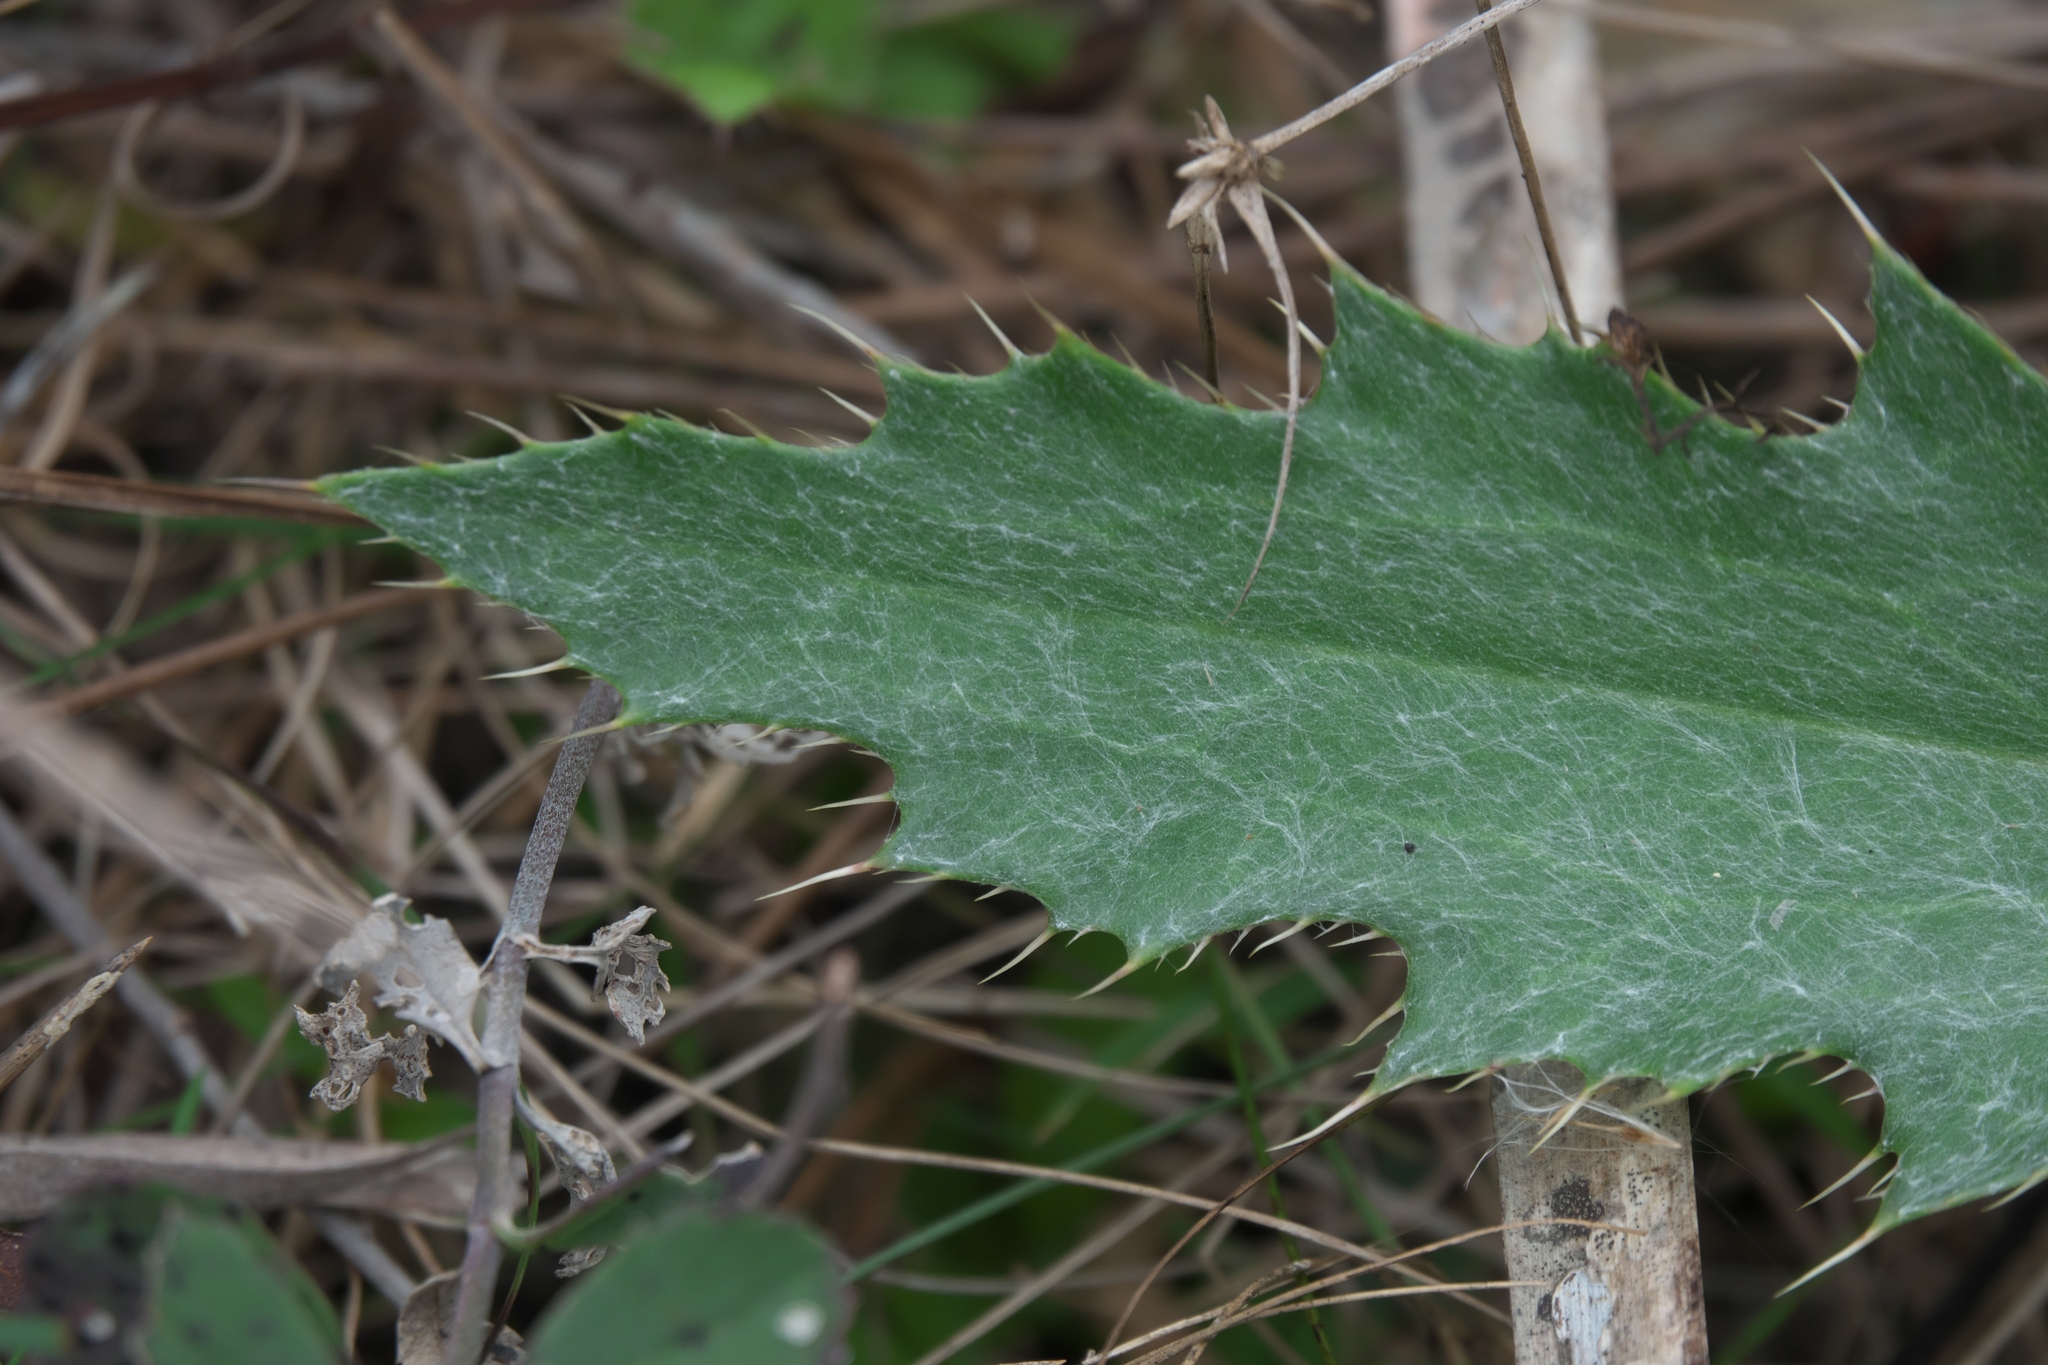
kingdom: Plantae
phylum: Tracheophyta
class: Magnoliopsida
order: Asterales
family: Asteraceae
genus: Cirsium
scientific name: Cirsium horridulum
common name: Bristly thistle
